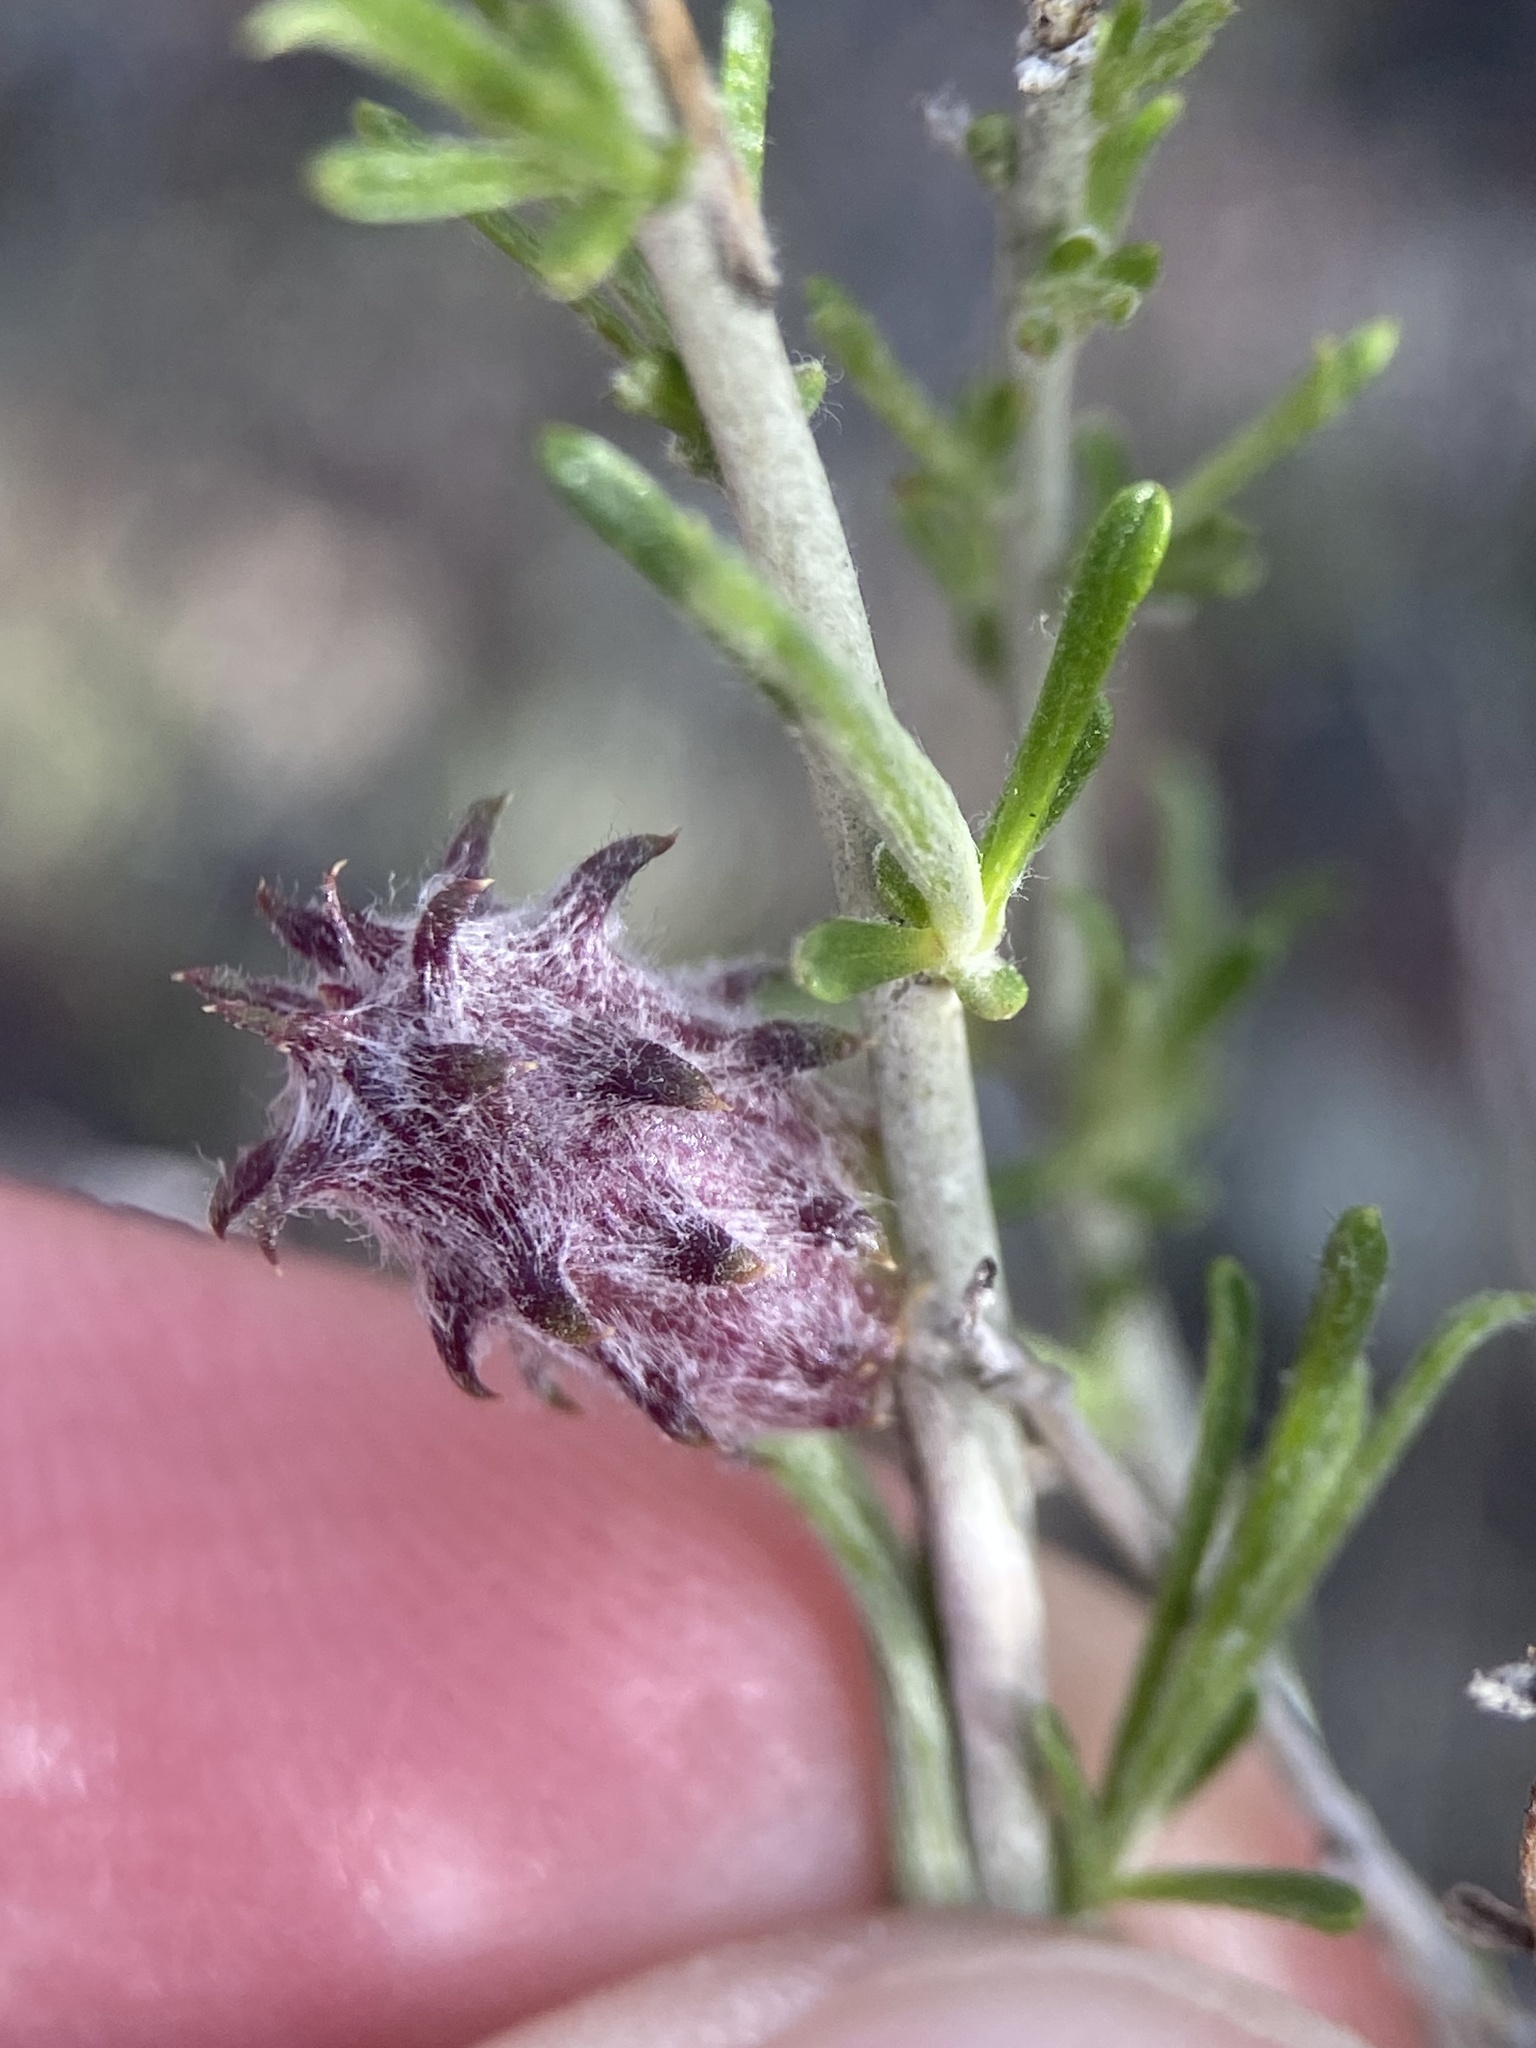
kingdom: Animalia
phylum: Arthropoda
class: Insecta
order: Diptera
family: Cecidomyiidae
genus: Rhopalomyia
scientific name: Rhopalomyia utahensis
